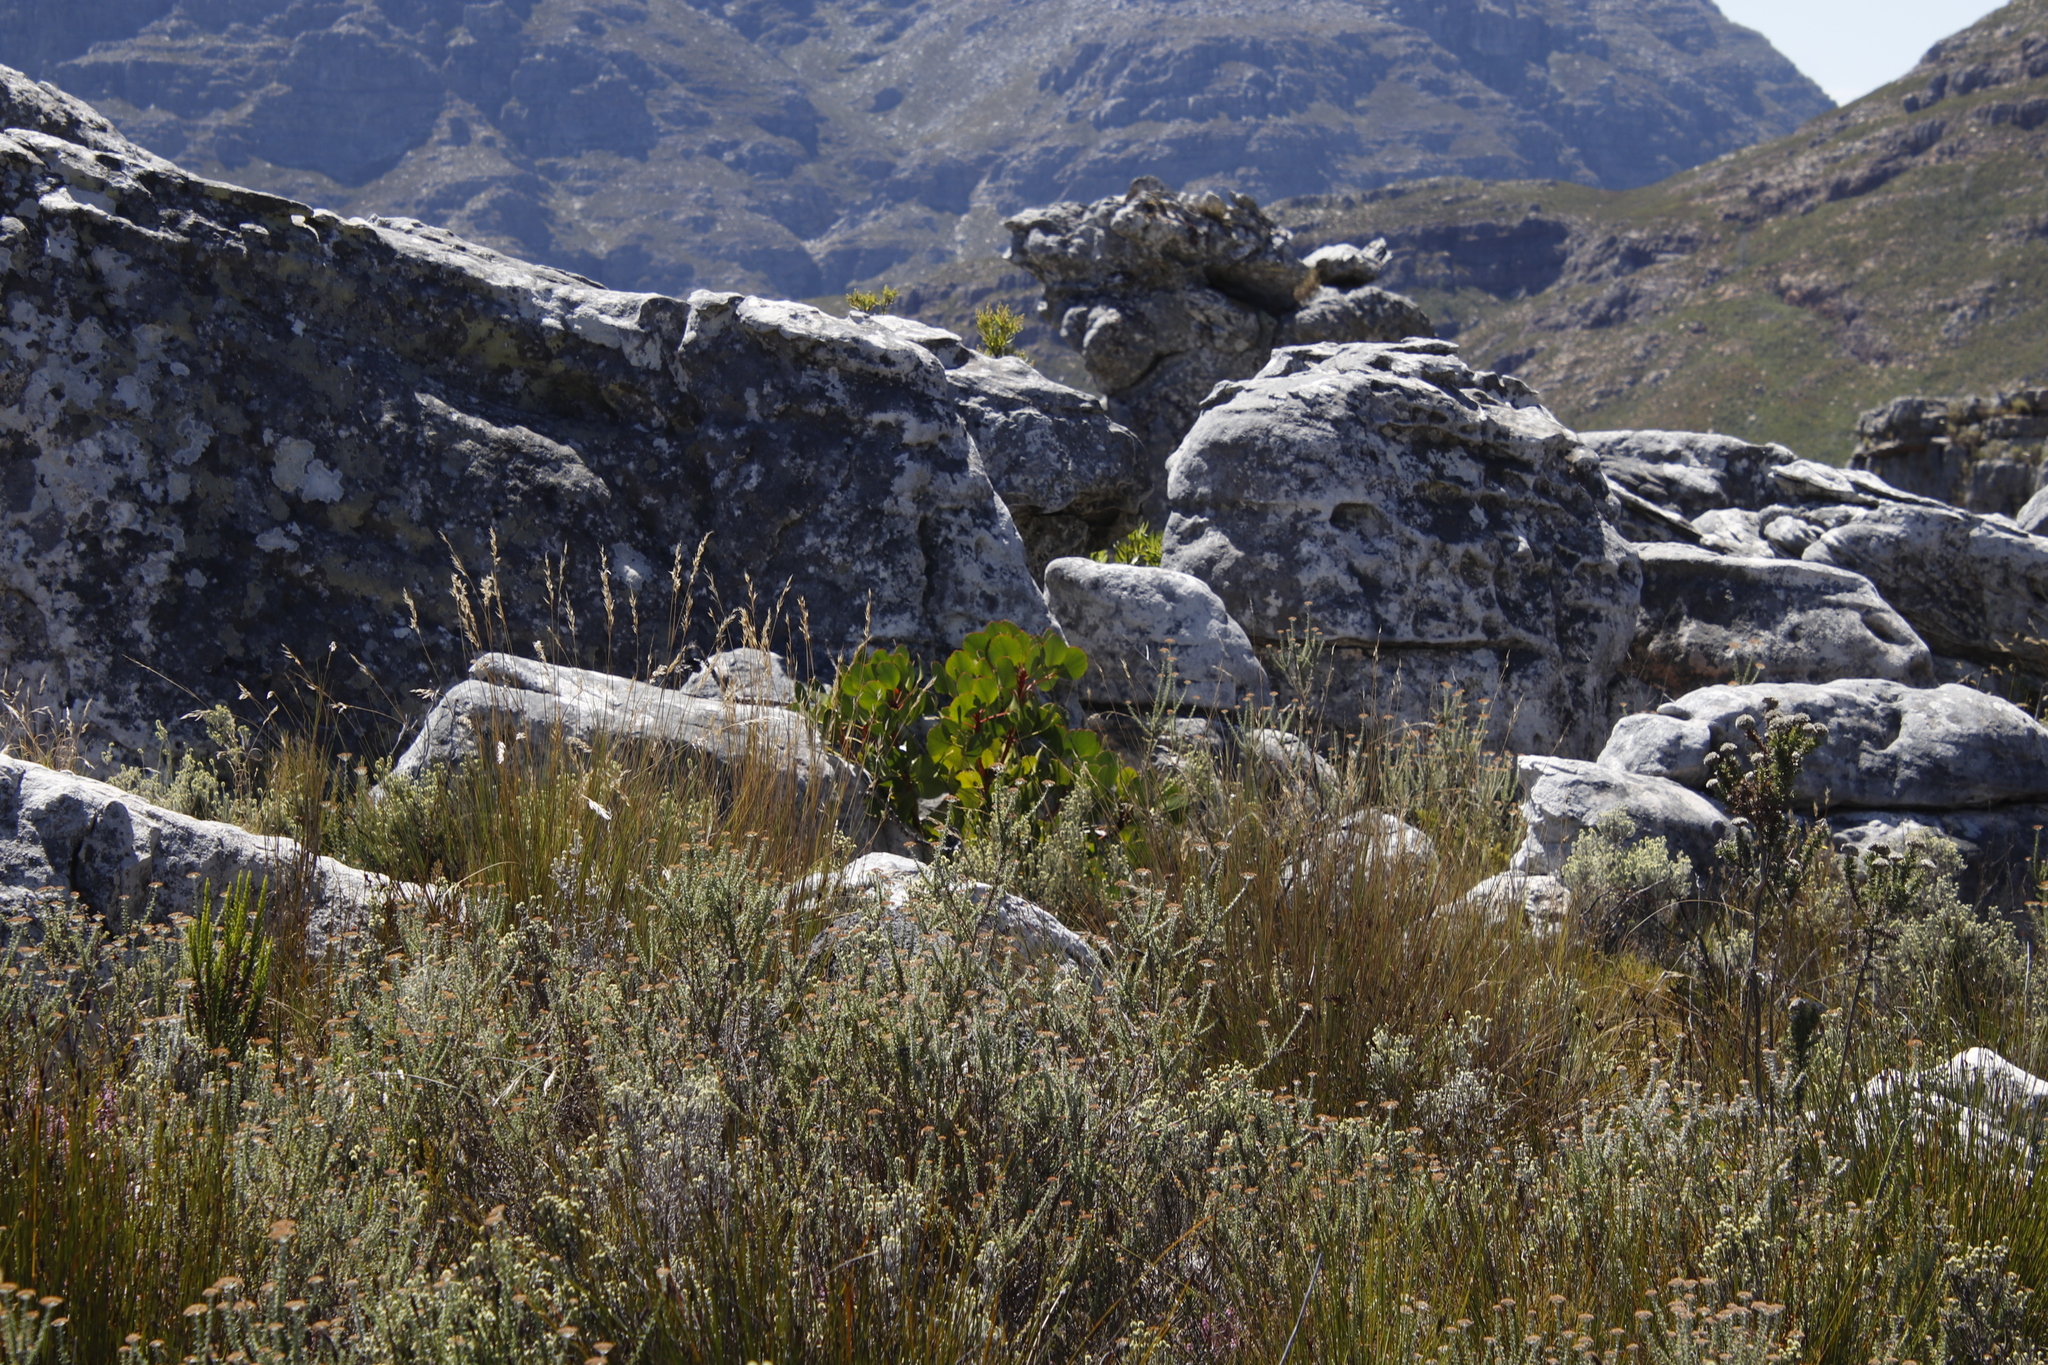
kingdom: Plantae
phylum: Tracheophyta
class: Magnoliopsida
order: Proteales
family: Proteaceae
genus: Protea
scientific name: Protea cynaroides
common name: King protea
